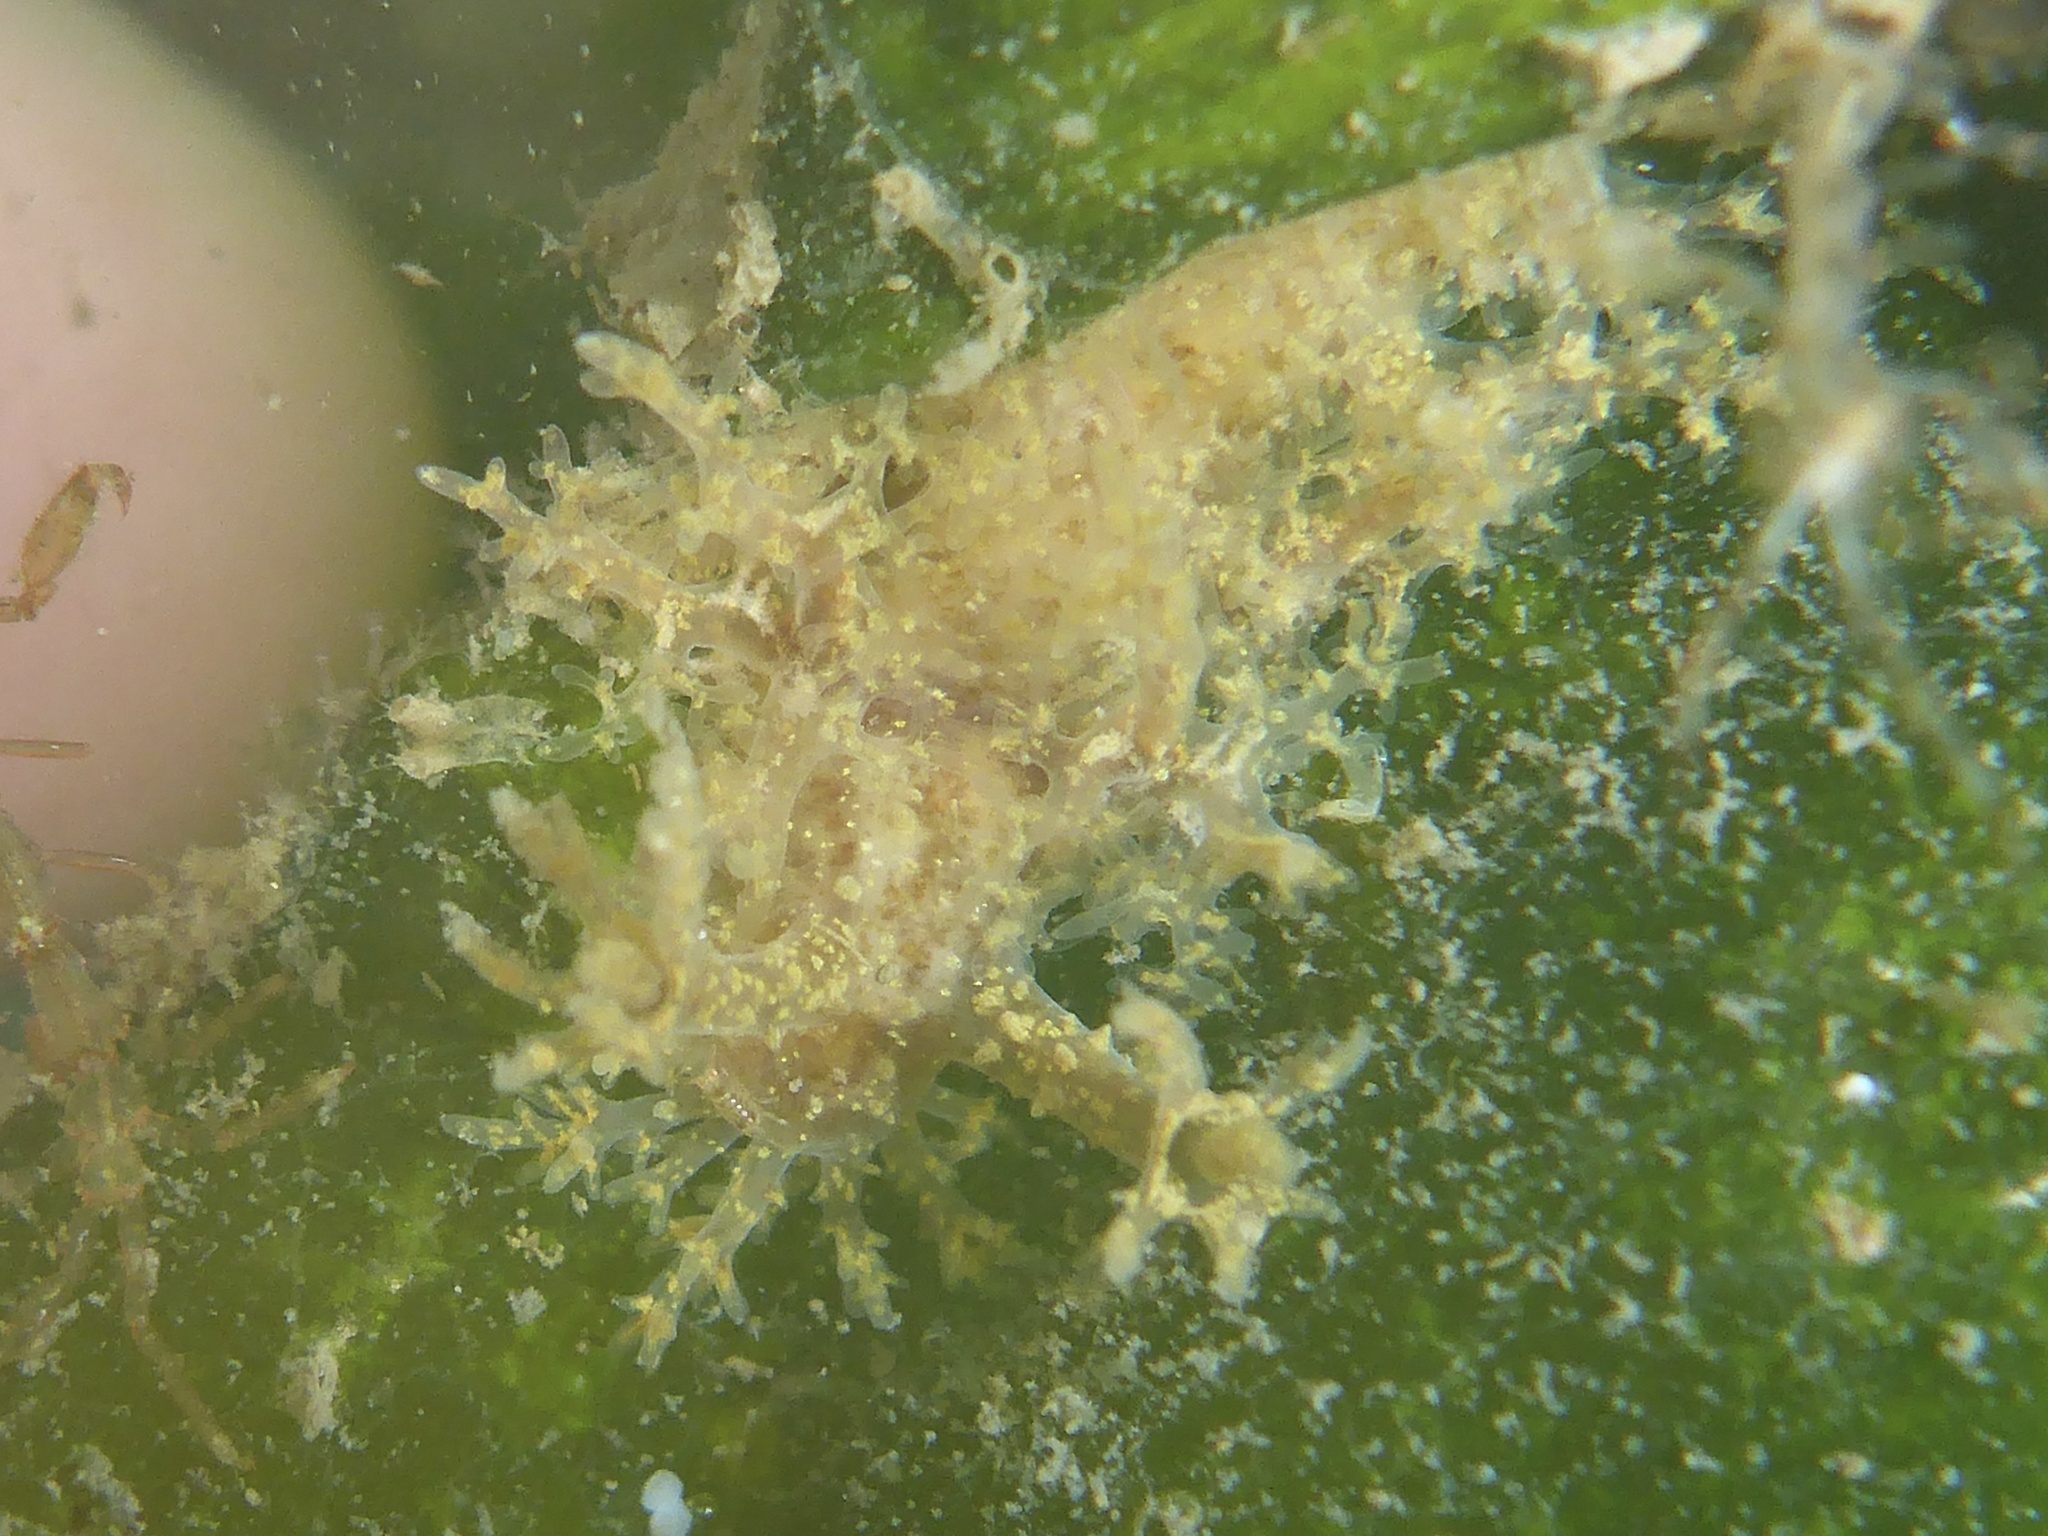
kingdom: Animalia
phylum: Mollusca
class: Gastropoda
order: Nudibranchia
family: Dendronotidae
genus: Dendronotus
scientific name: Dendronotus venustus
